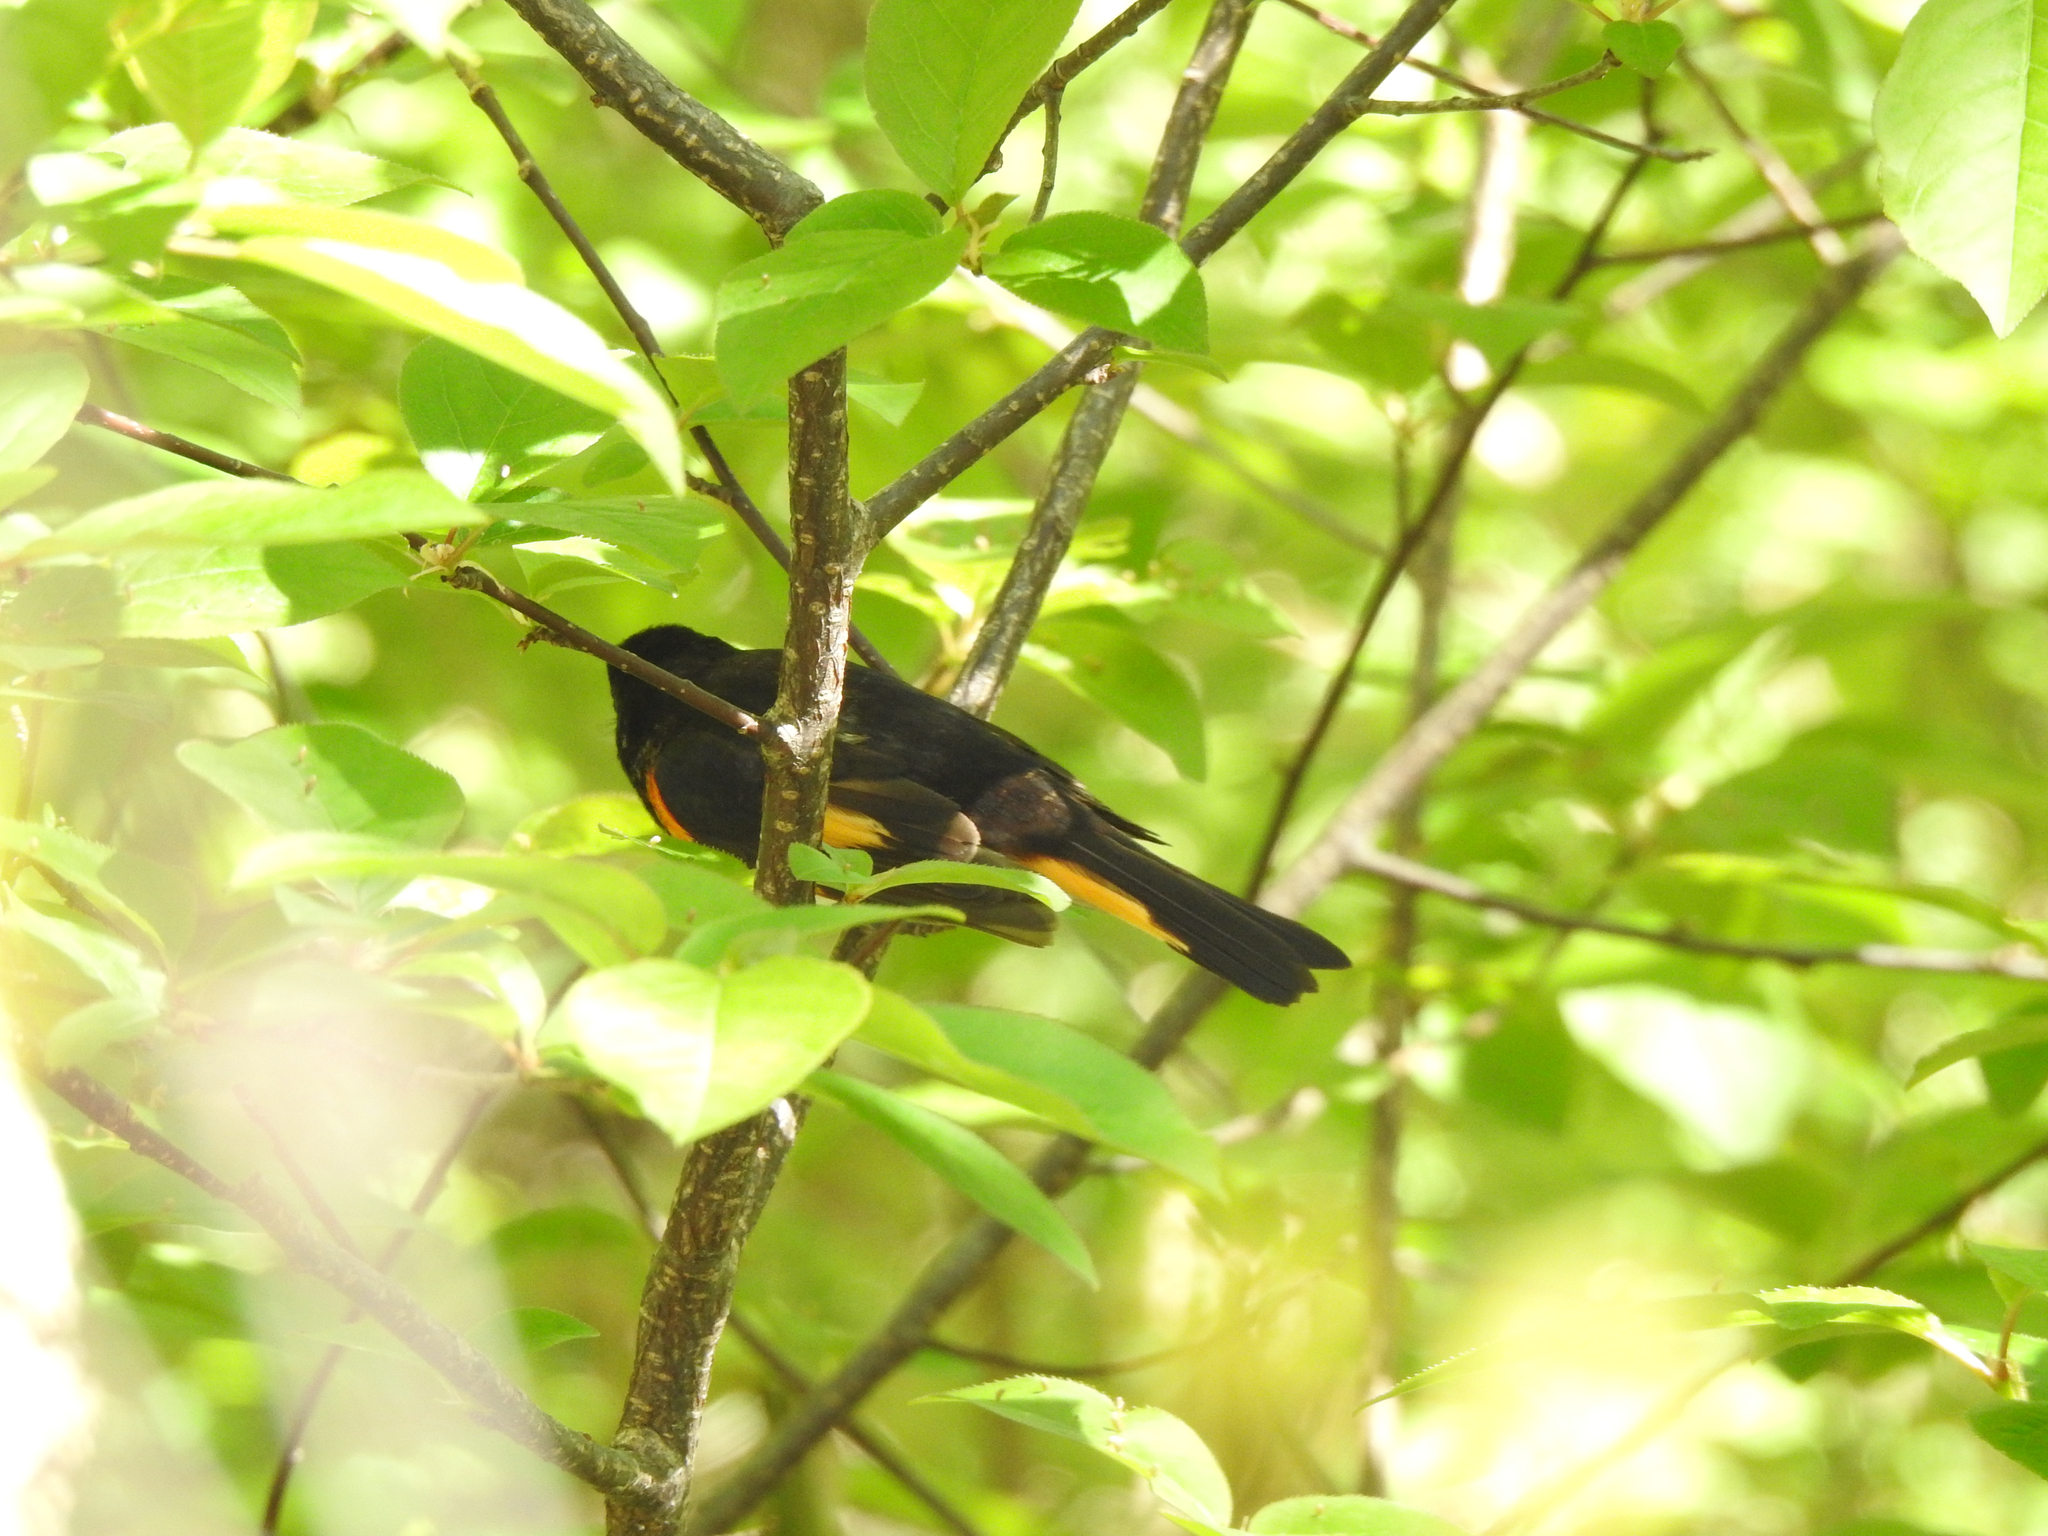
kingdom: Animalia
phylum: Chordata
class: Aves
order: Passeriformes
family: Parulidae
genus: Setophaga
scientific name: Setophaga ruticilla
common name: American redstart
